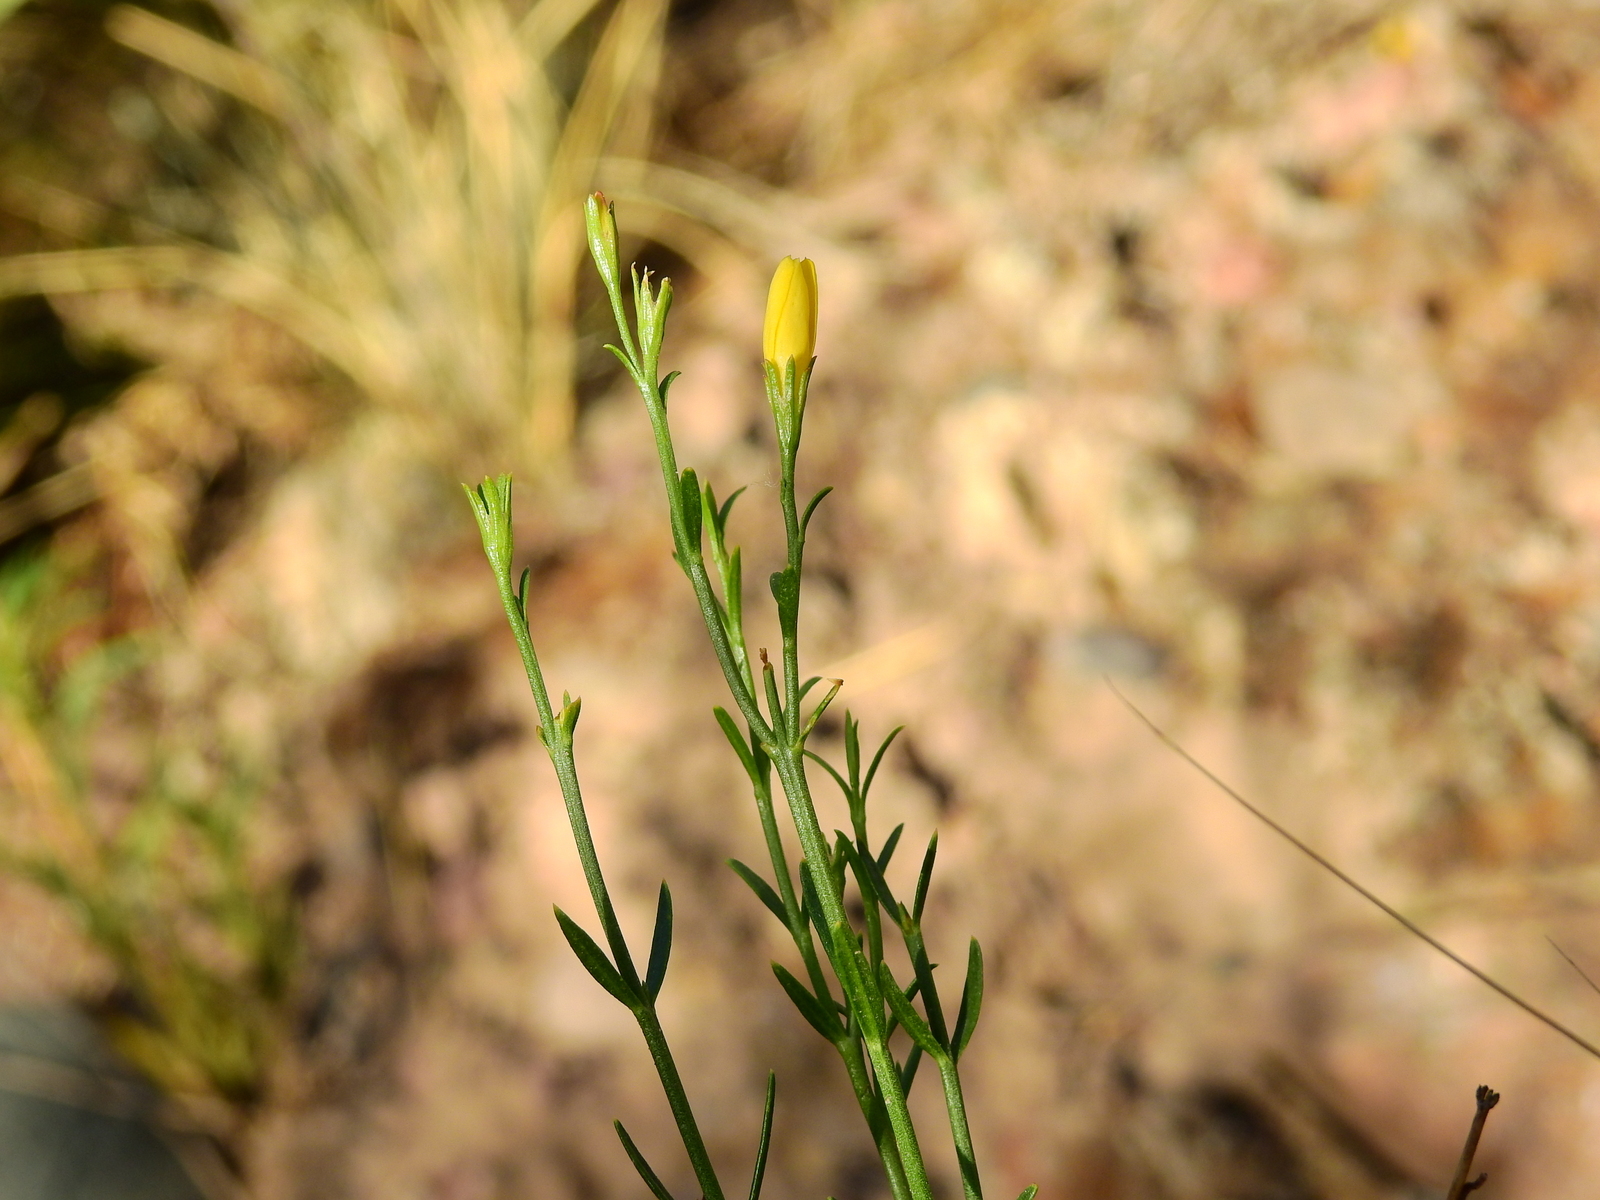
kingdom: Plantae
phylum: Tracheophyta
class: Magnoliopsida
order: Lamiales
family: Oleaceae
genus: Menodora
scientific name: Menodora decemfida
